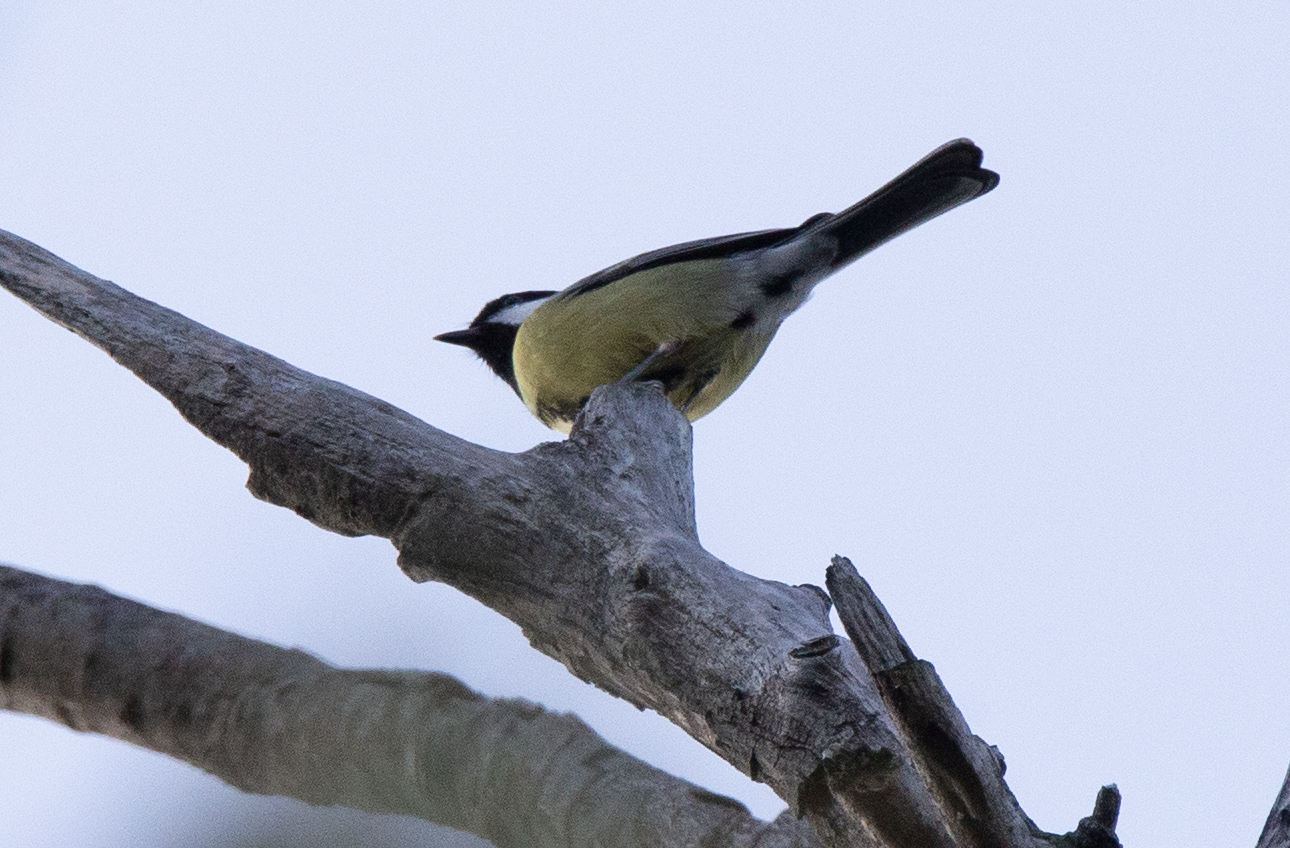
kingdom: Animalia
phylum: Chordata
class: Aves
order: Passeriformes
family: Paridae
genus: Parus
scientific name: Parus major
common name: Great tit
